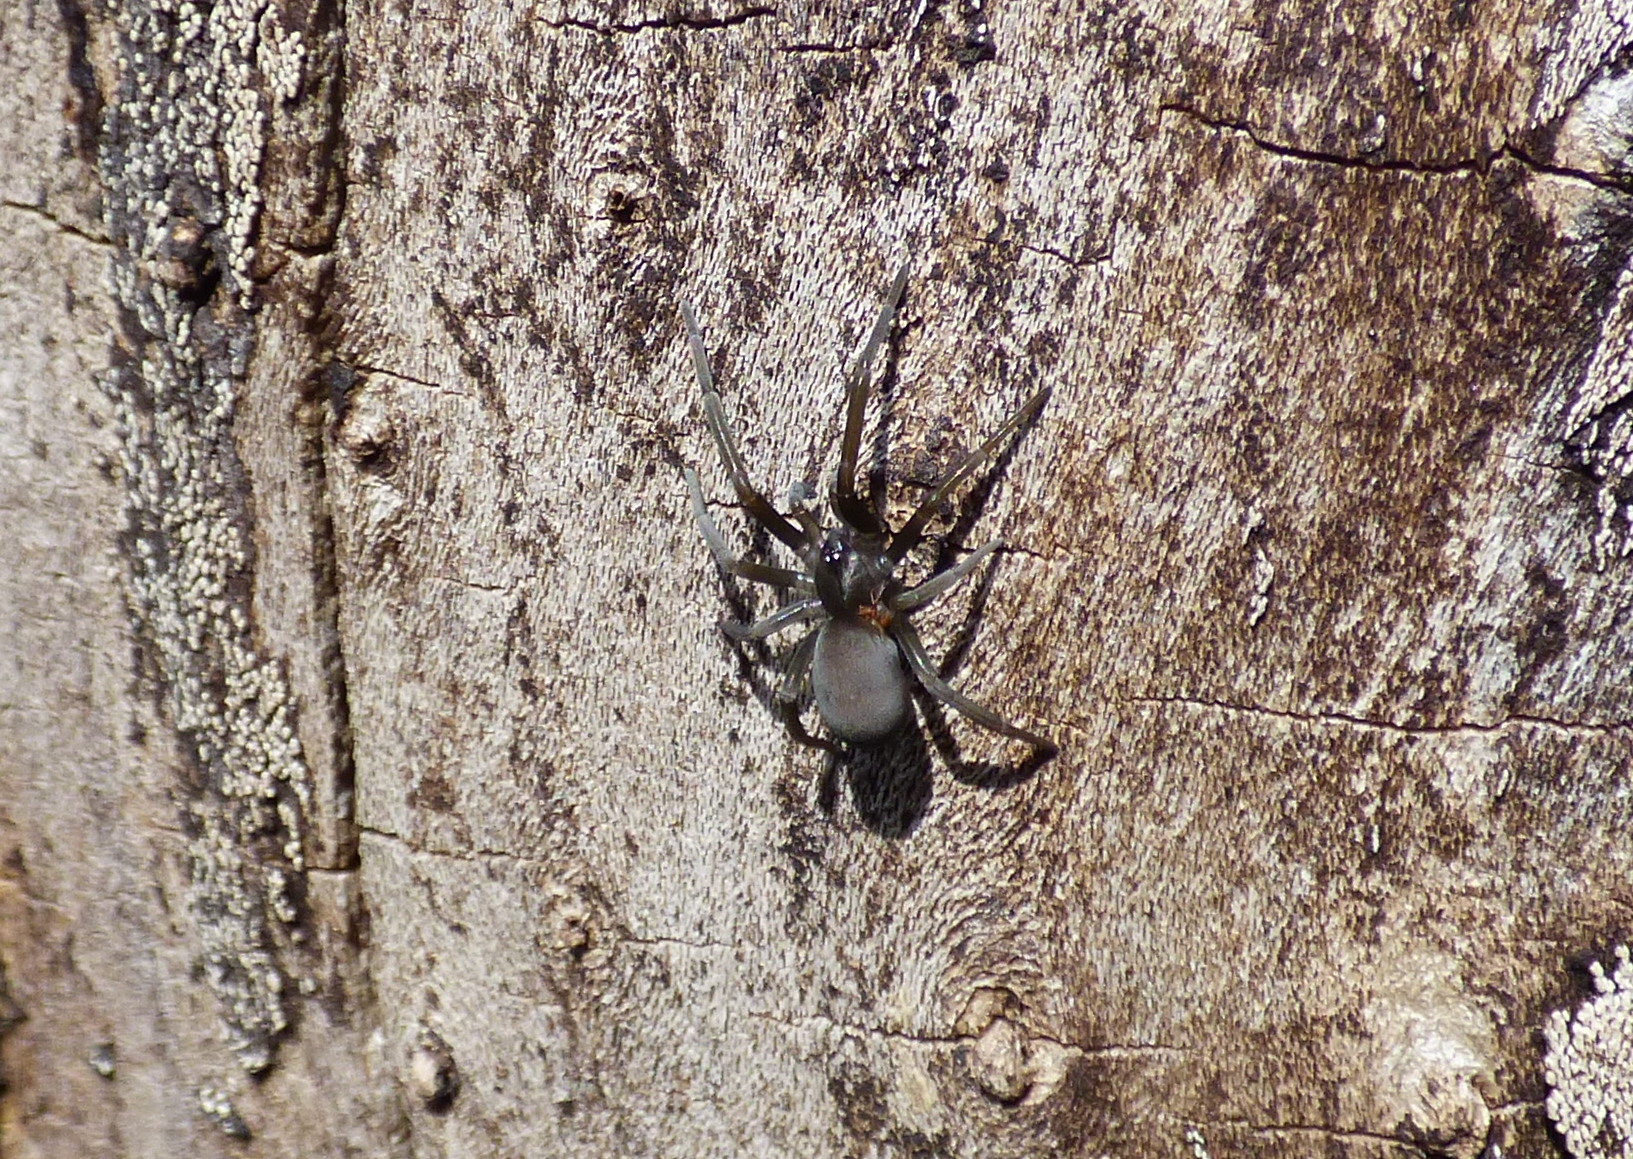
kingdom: Animalia
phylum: Arthropoda
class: Arachnida
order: Araneae
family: Filistatidae
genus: Kukulcania
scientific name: Kukulcania hibernalis
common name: Crevice weaver
